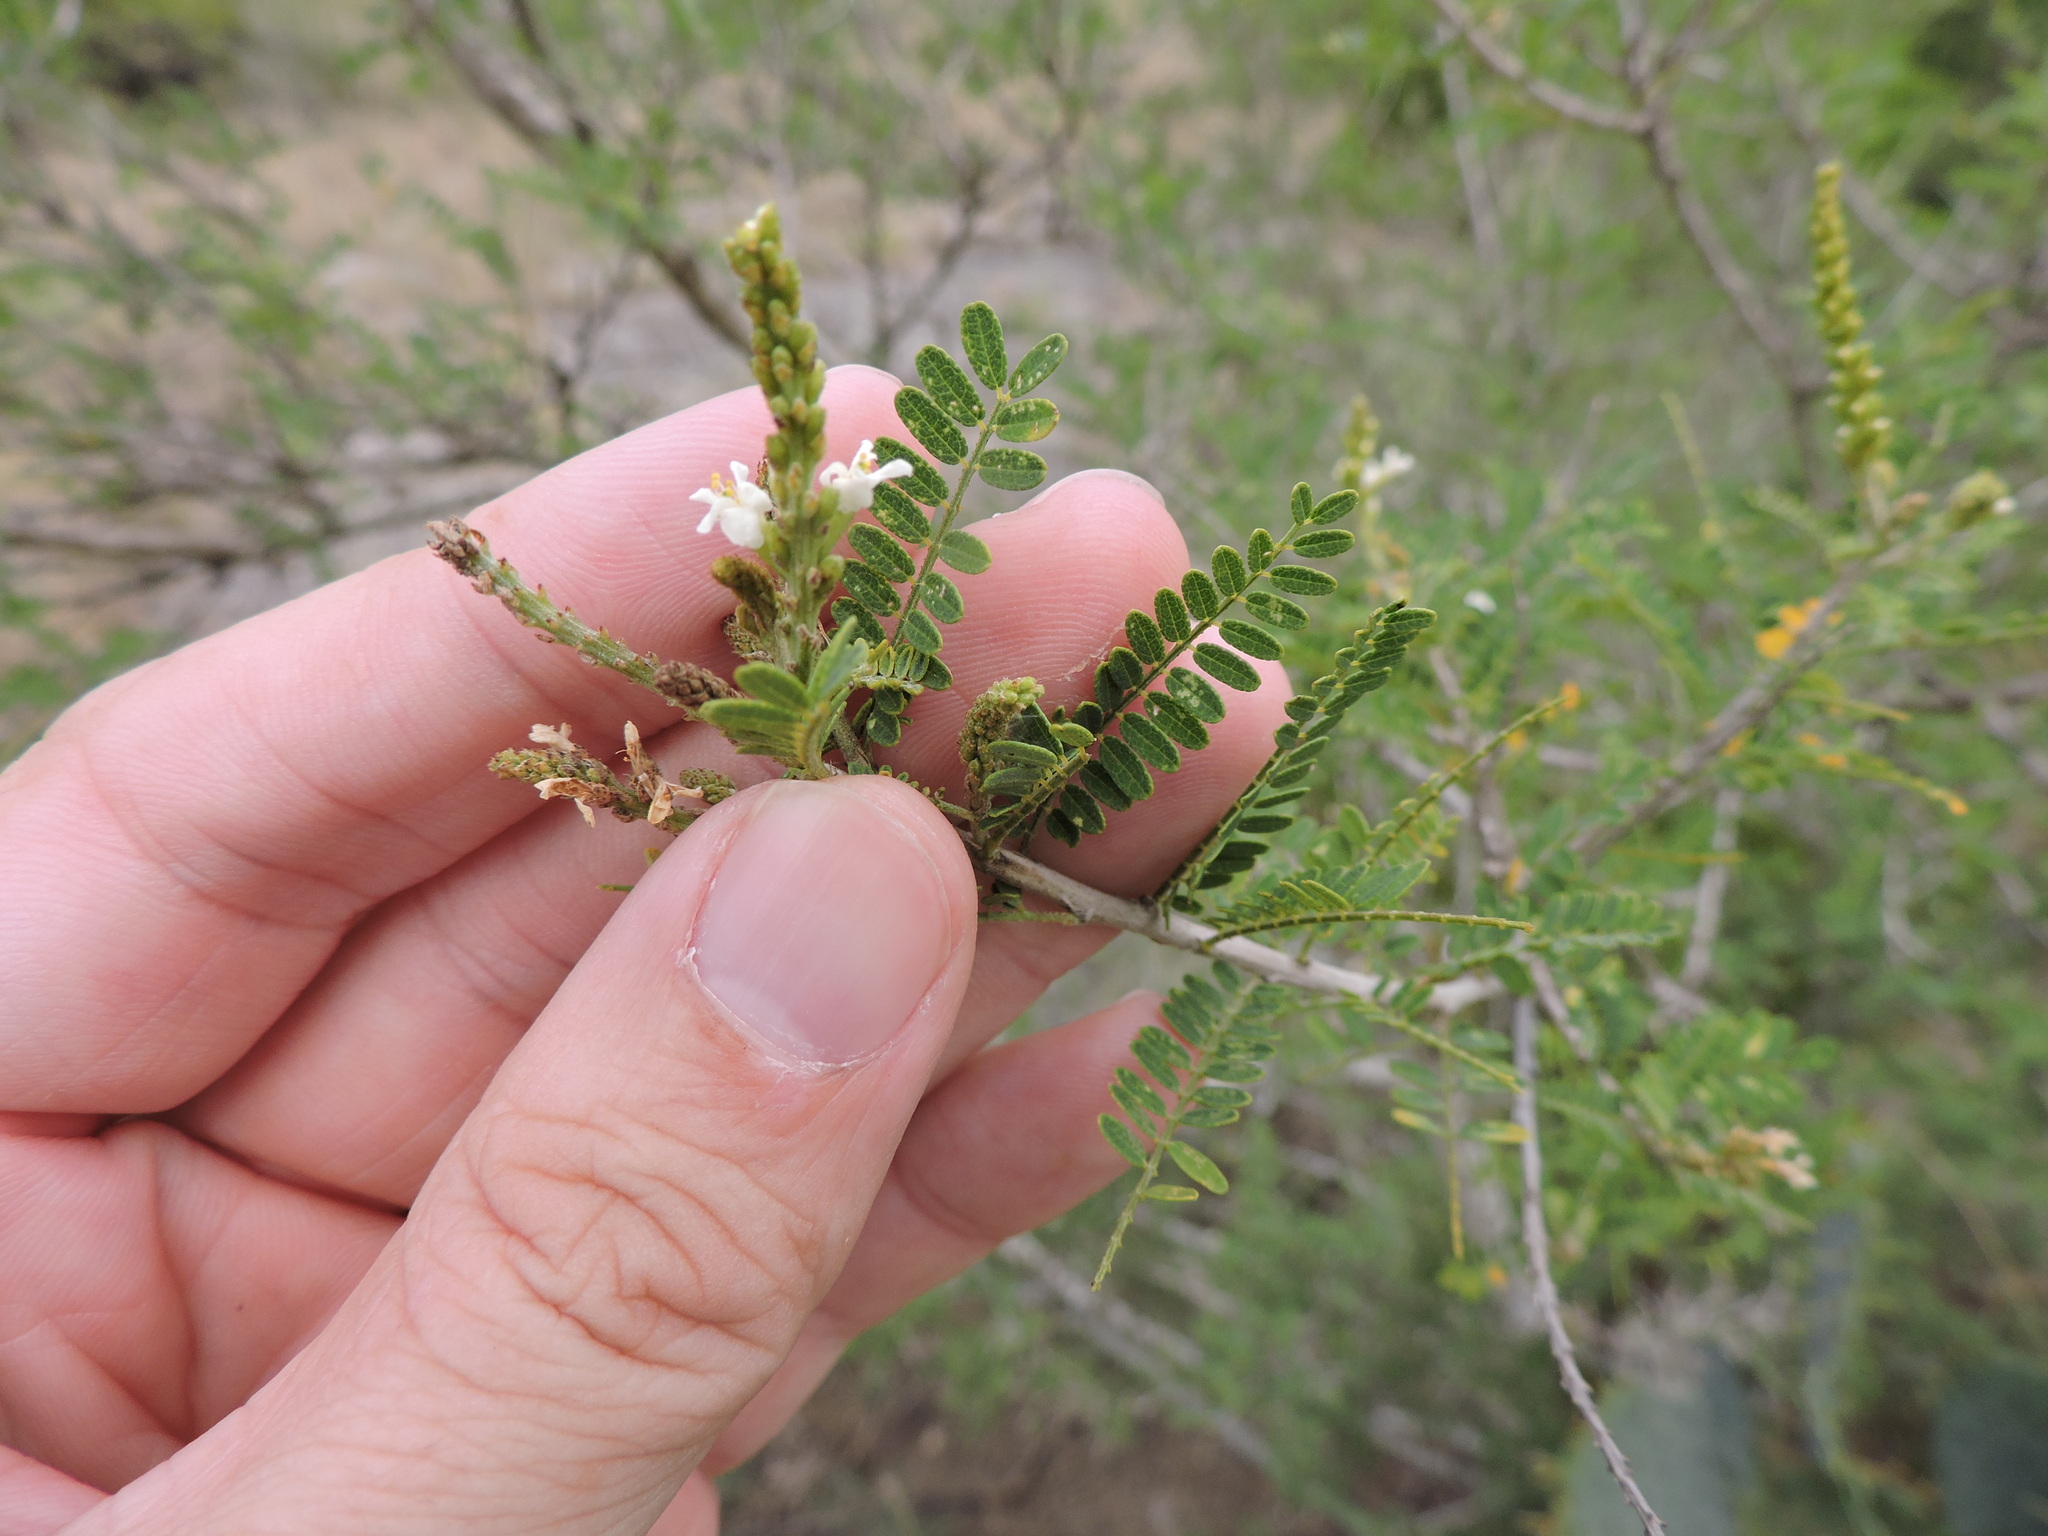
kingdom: Plantae
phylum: Tracheophyta
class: Magnoliopsida
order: Fabales
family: Fabaceae
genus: Eysenhardtia
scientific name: Eysenhardtia texana
